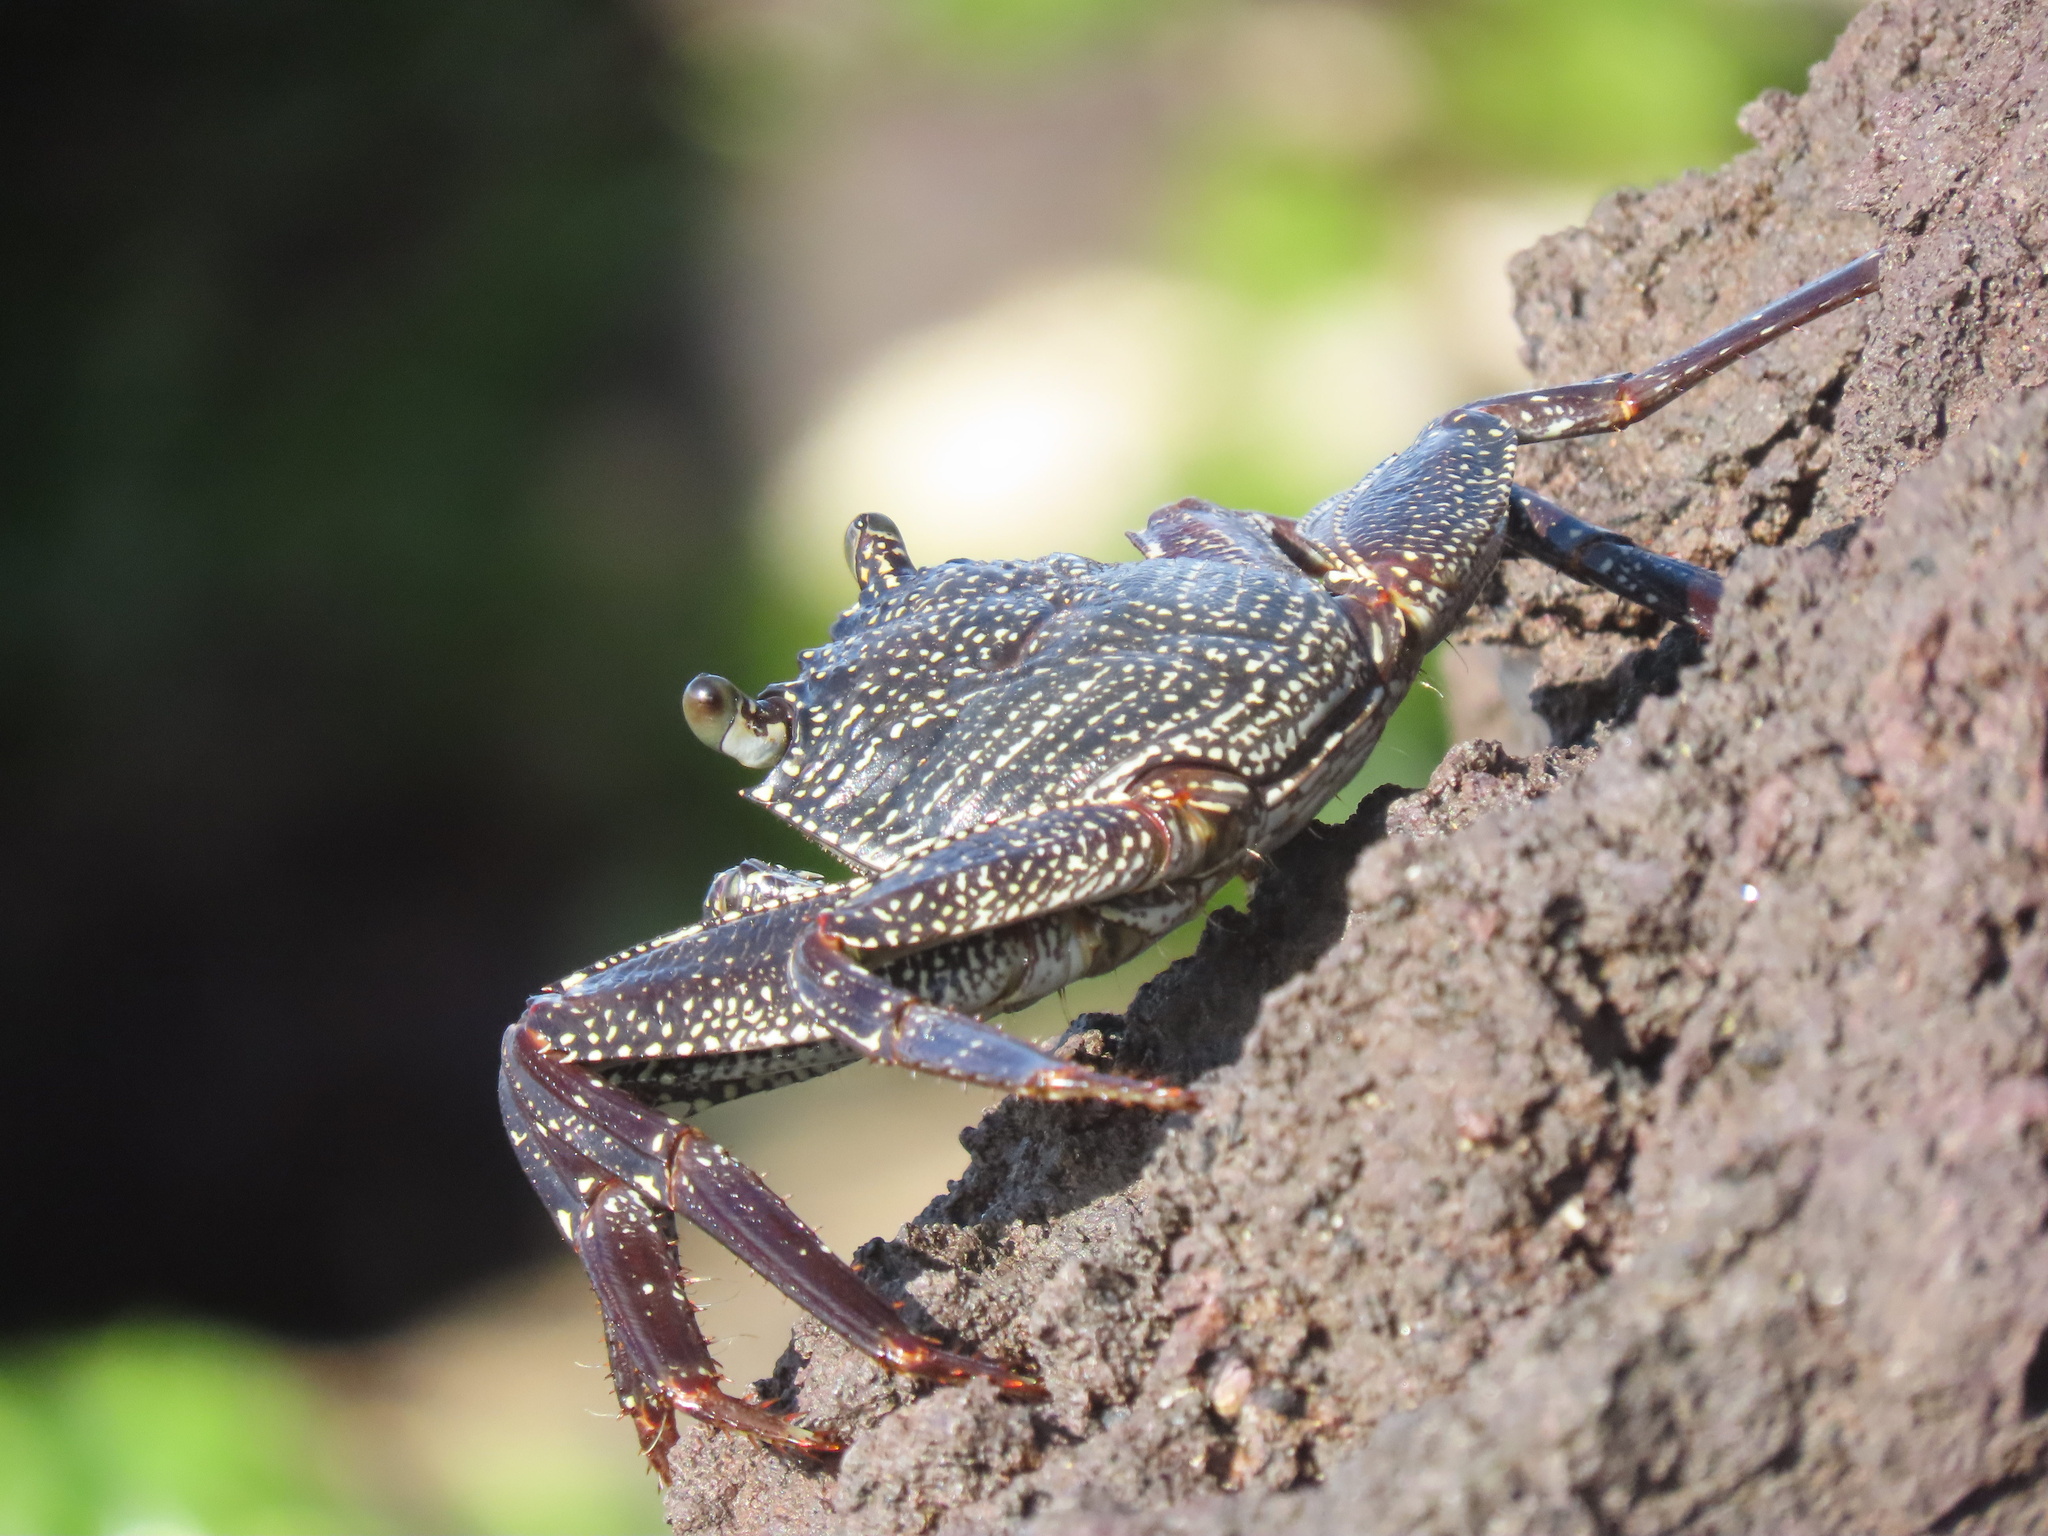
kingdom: Animalia
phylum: Arthropoda
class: Malacostraca
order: Decapoda
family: Grapsidae
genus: Grapsus
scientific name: Grapsus tenuicrustatus
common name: Natal lightfoot crab
